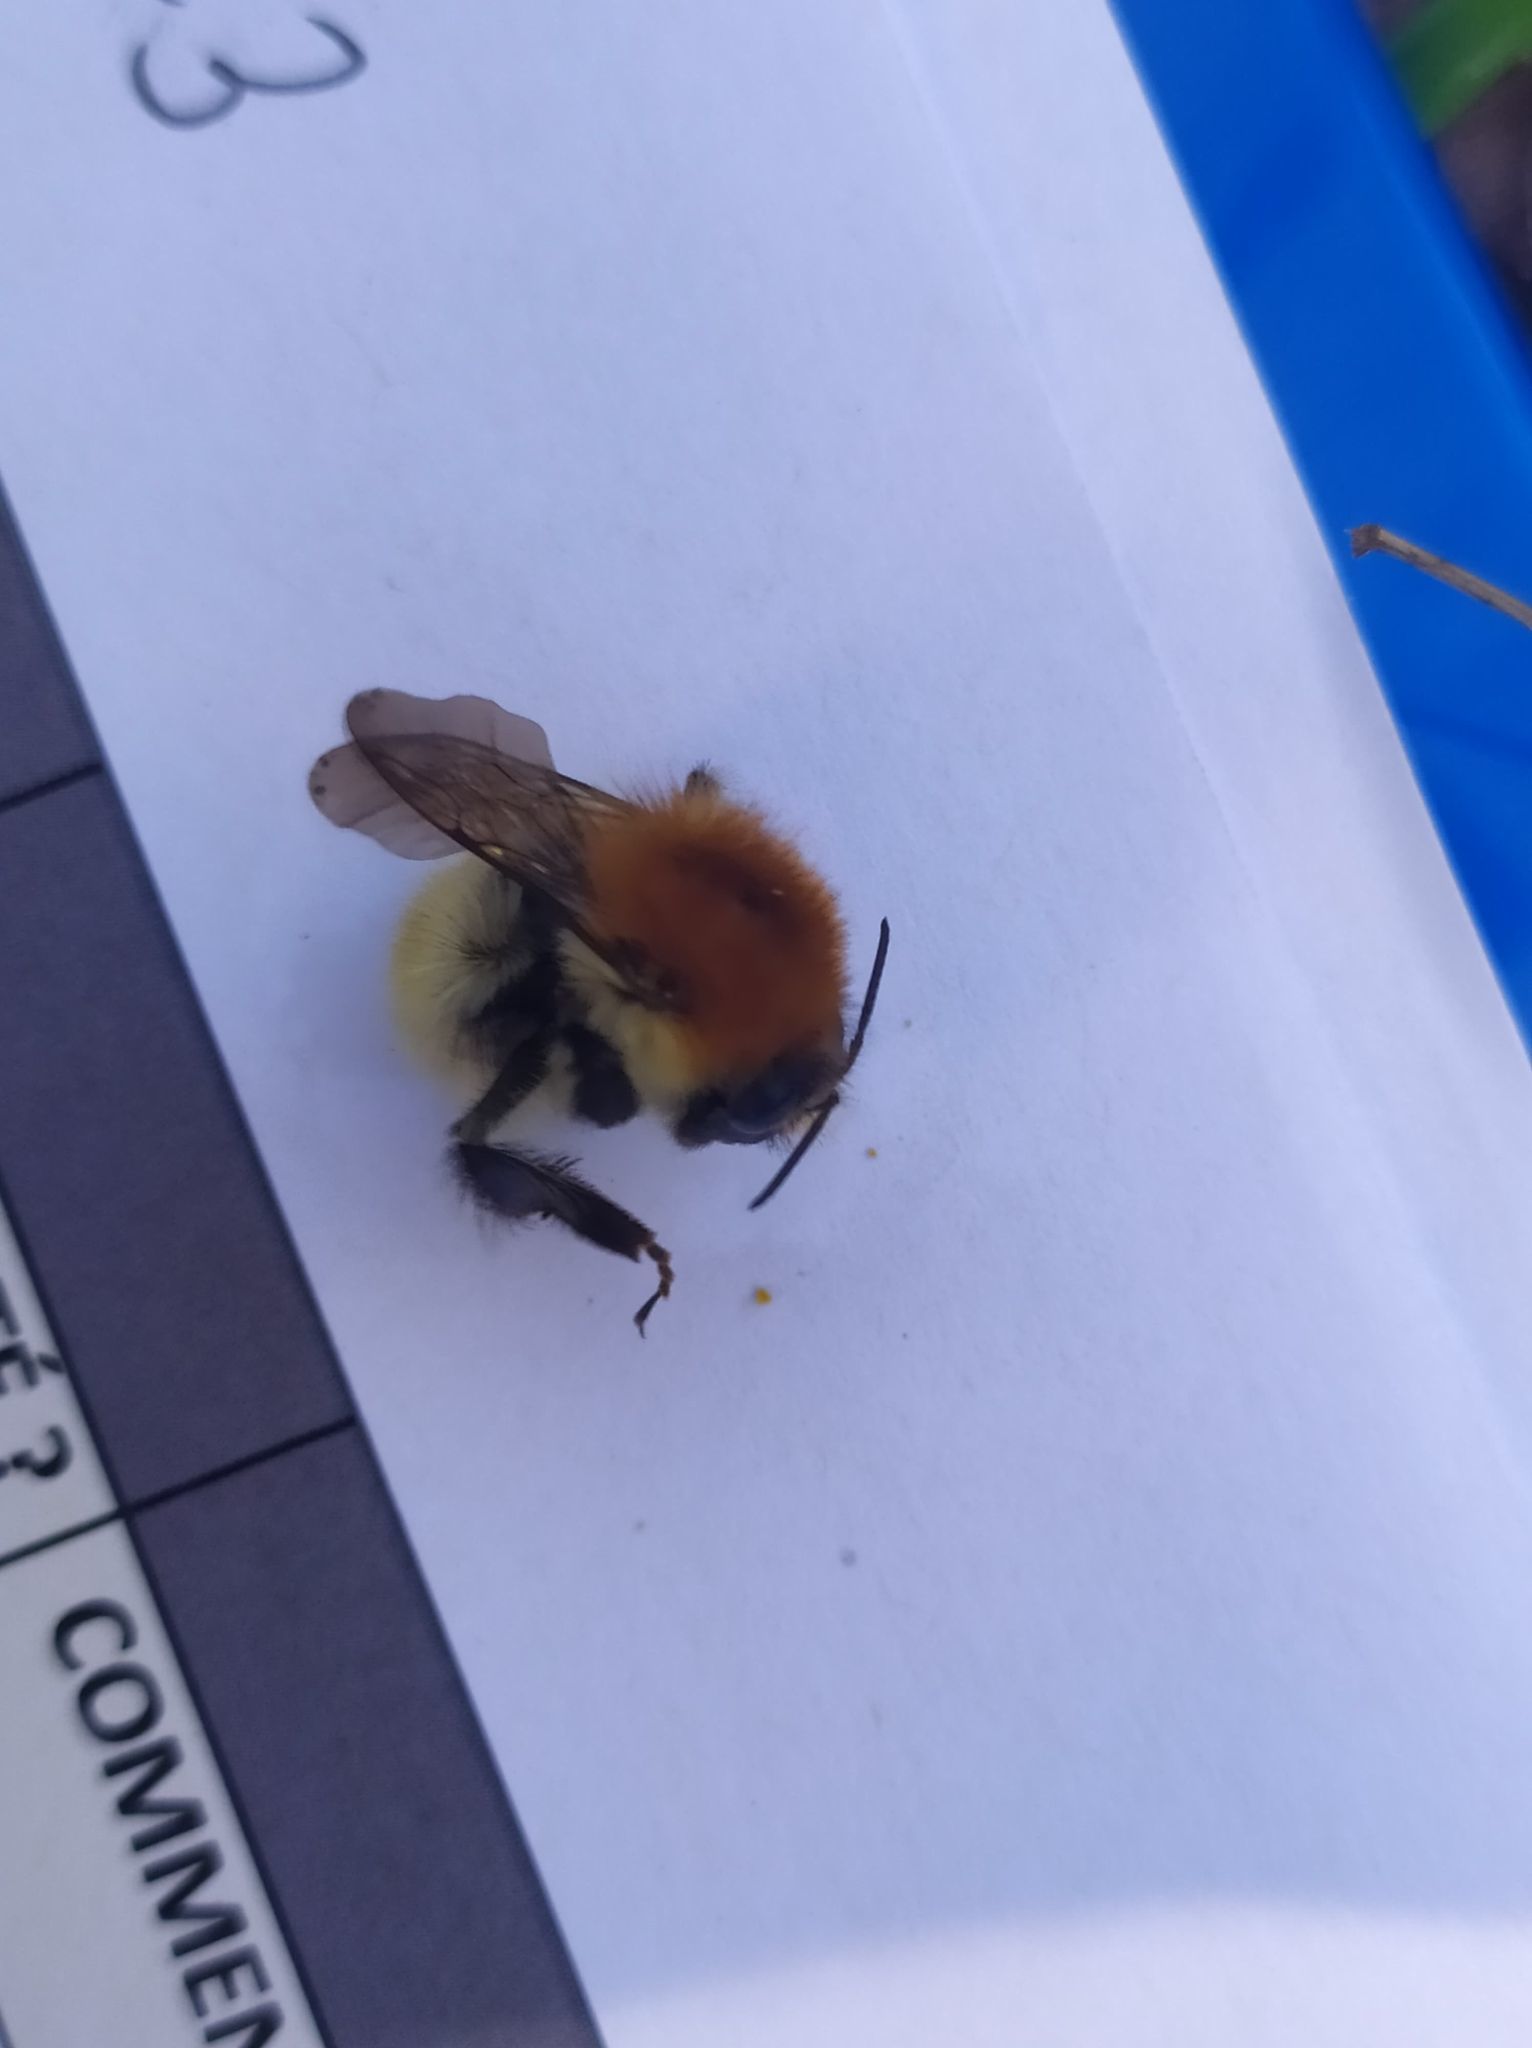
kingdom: Animalia
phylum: Arthropoda
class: Insecta
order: Hymenoptera
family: Apidae
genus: Bombus
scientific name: Bombus pascuorum
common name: Common carder bee
